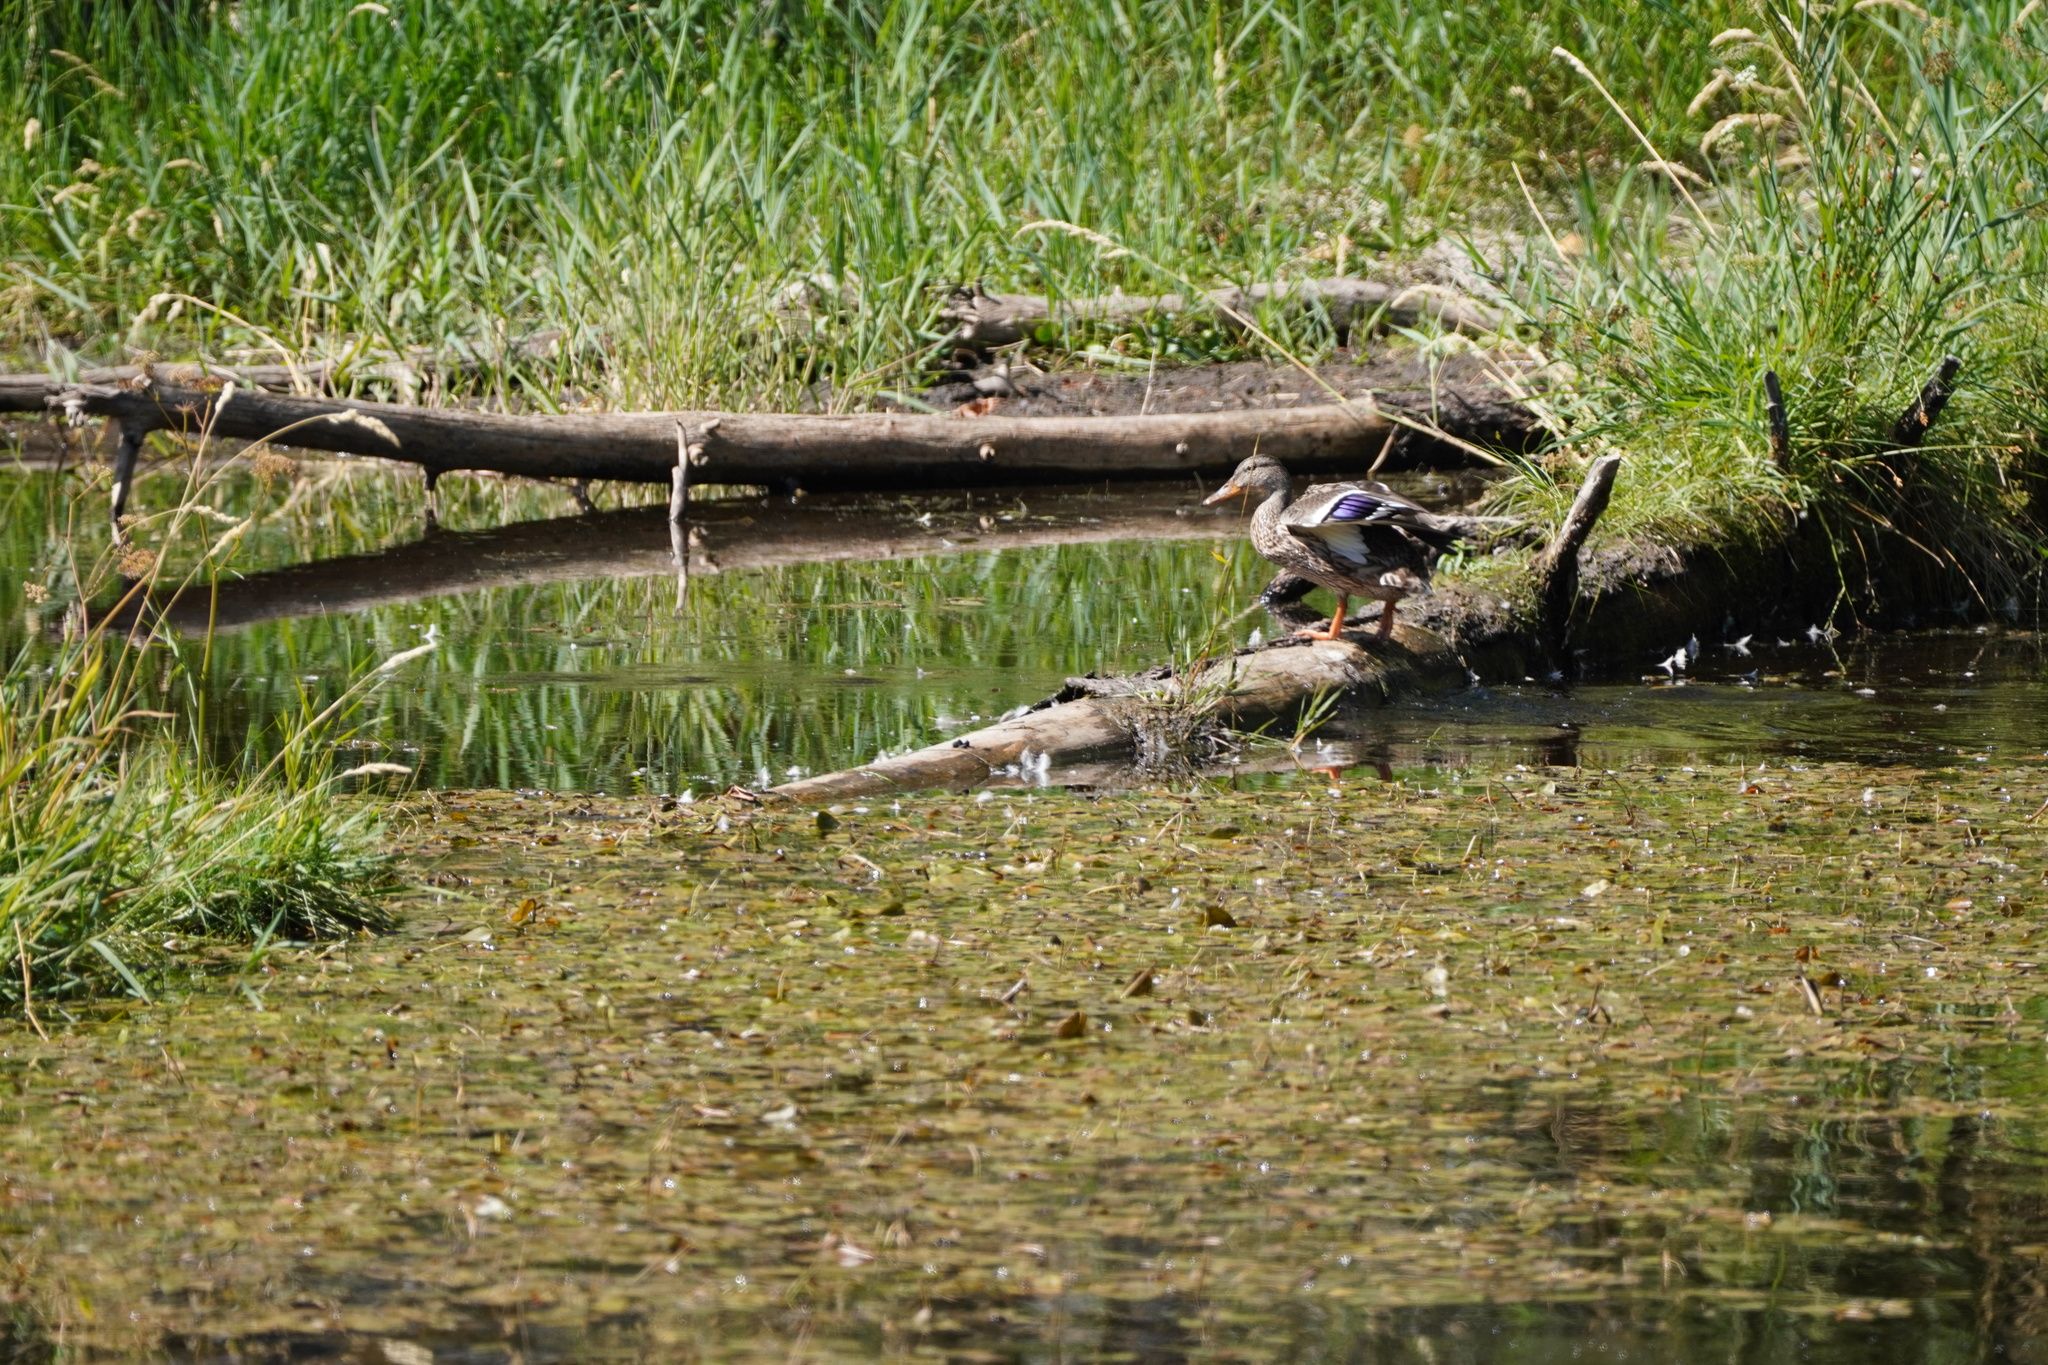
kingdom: Animalia
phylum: Chordata
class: Aves
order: Anseriformes
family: Anatidae
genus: Anas
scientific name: Anas platyrhynchos
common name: Mallard
